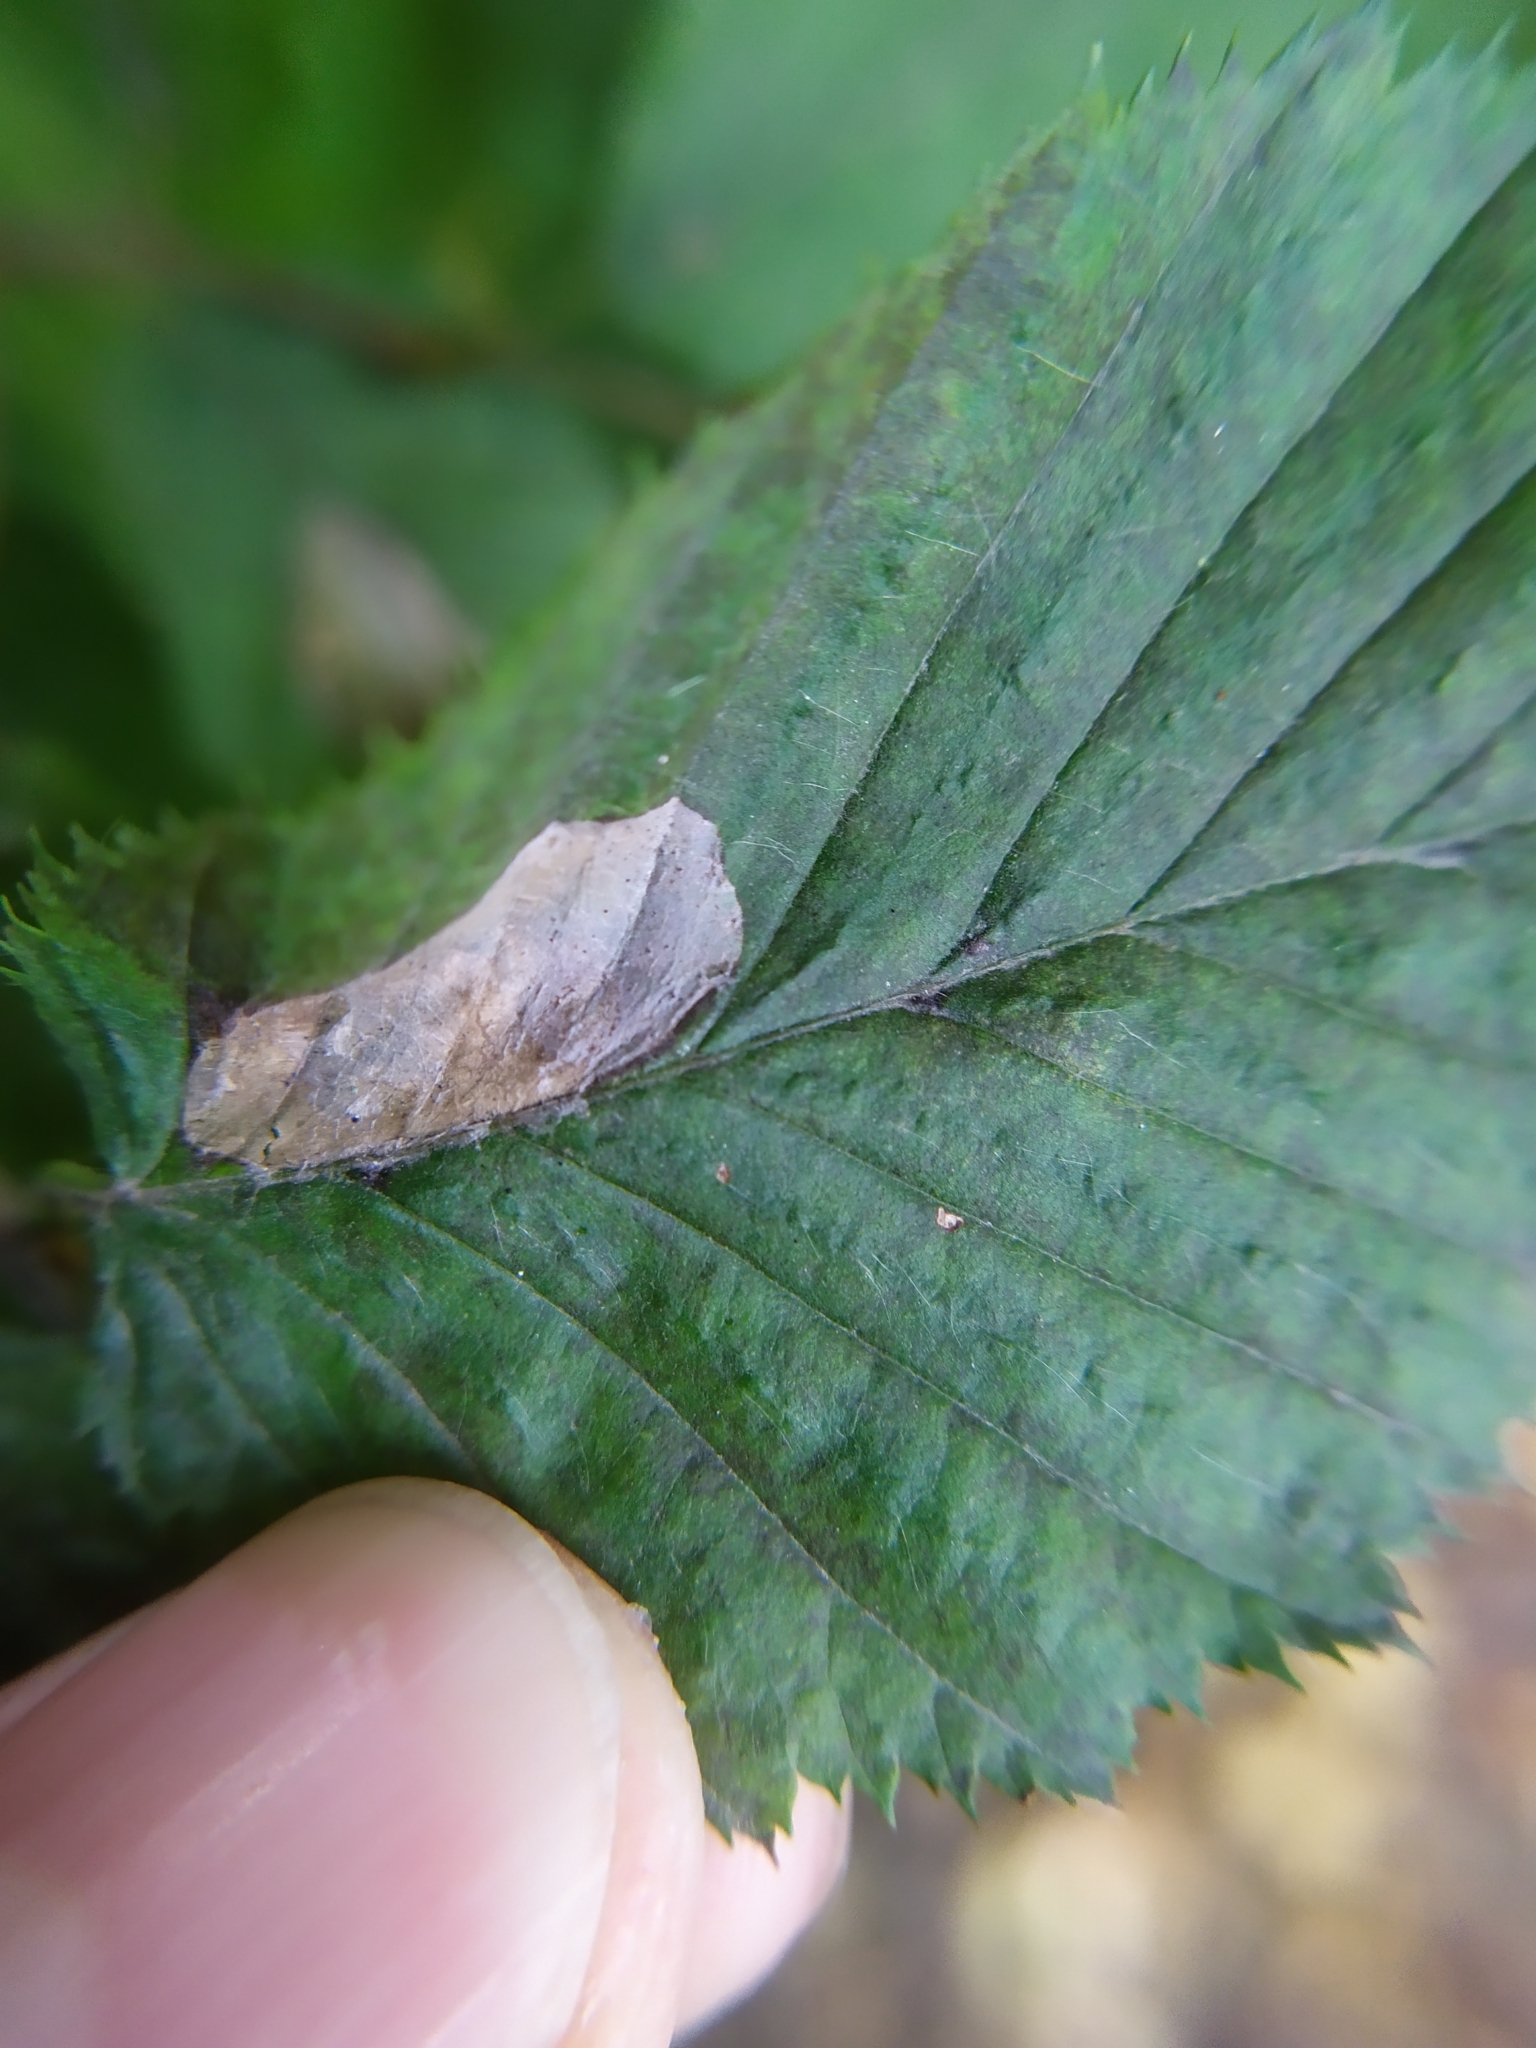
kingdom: Animalia
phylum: Arthropoda
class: Insecta
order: Lepidoptera
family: Gracillariidae
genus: Phyllonorycter
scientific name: Phyllonorycter esperella
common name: Dark hornbeam midget
